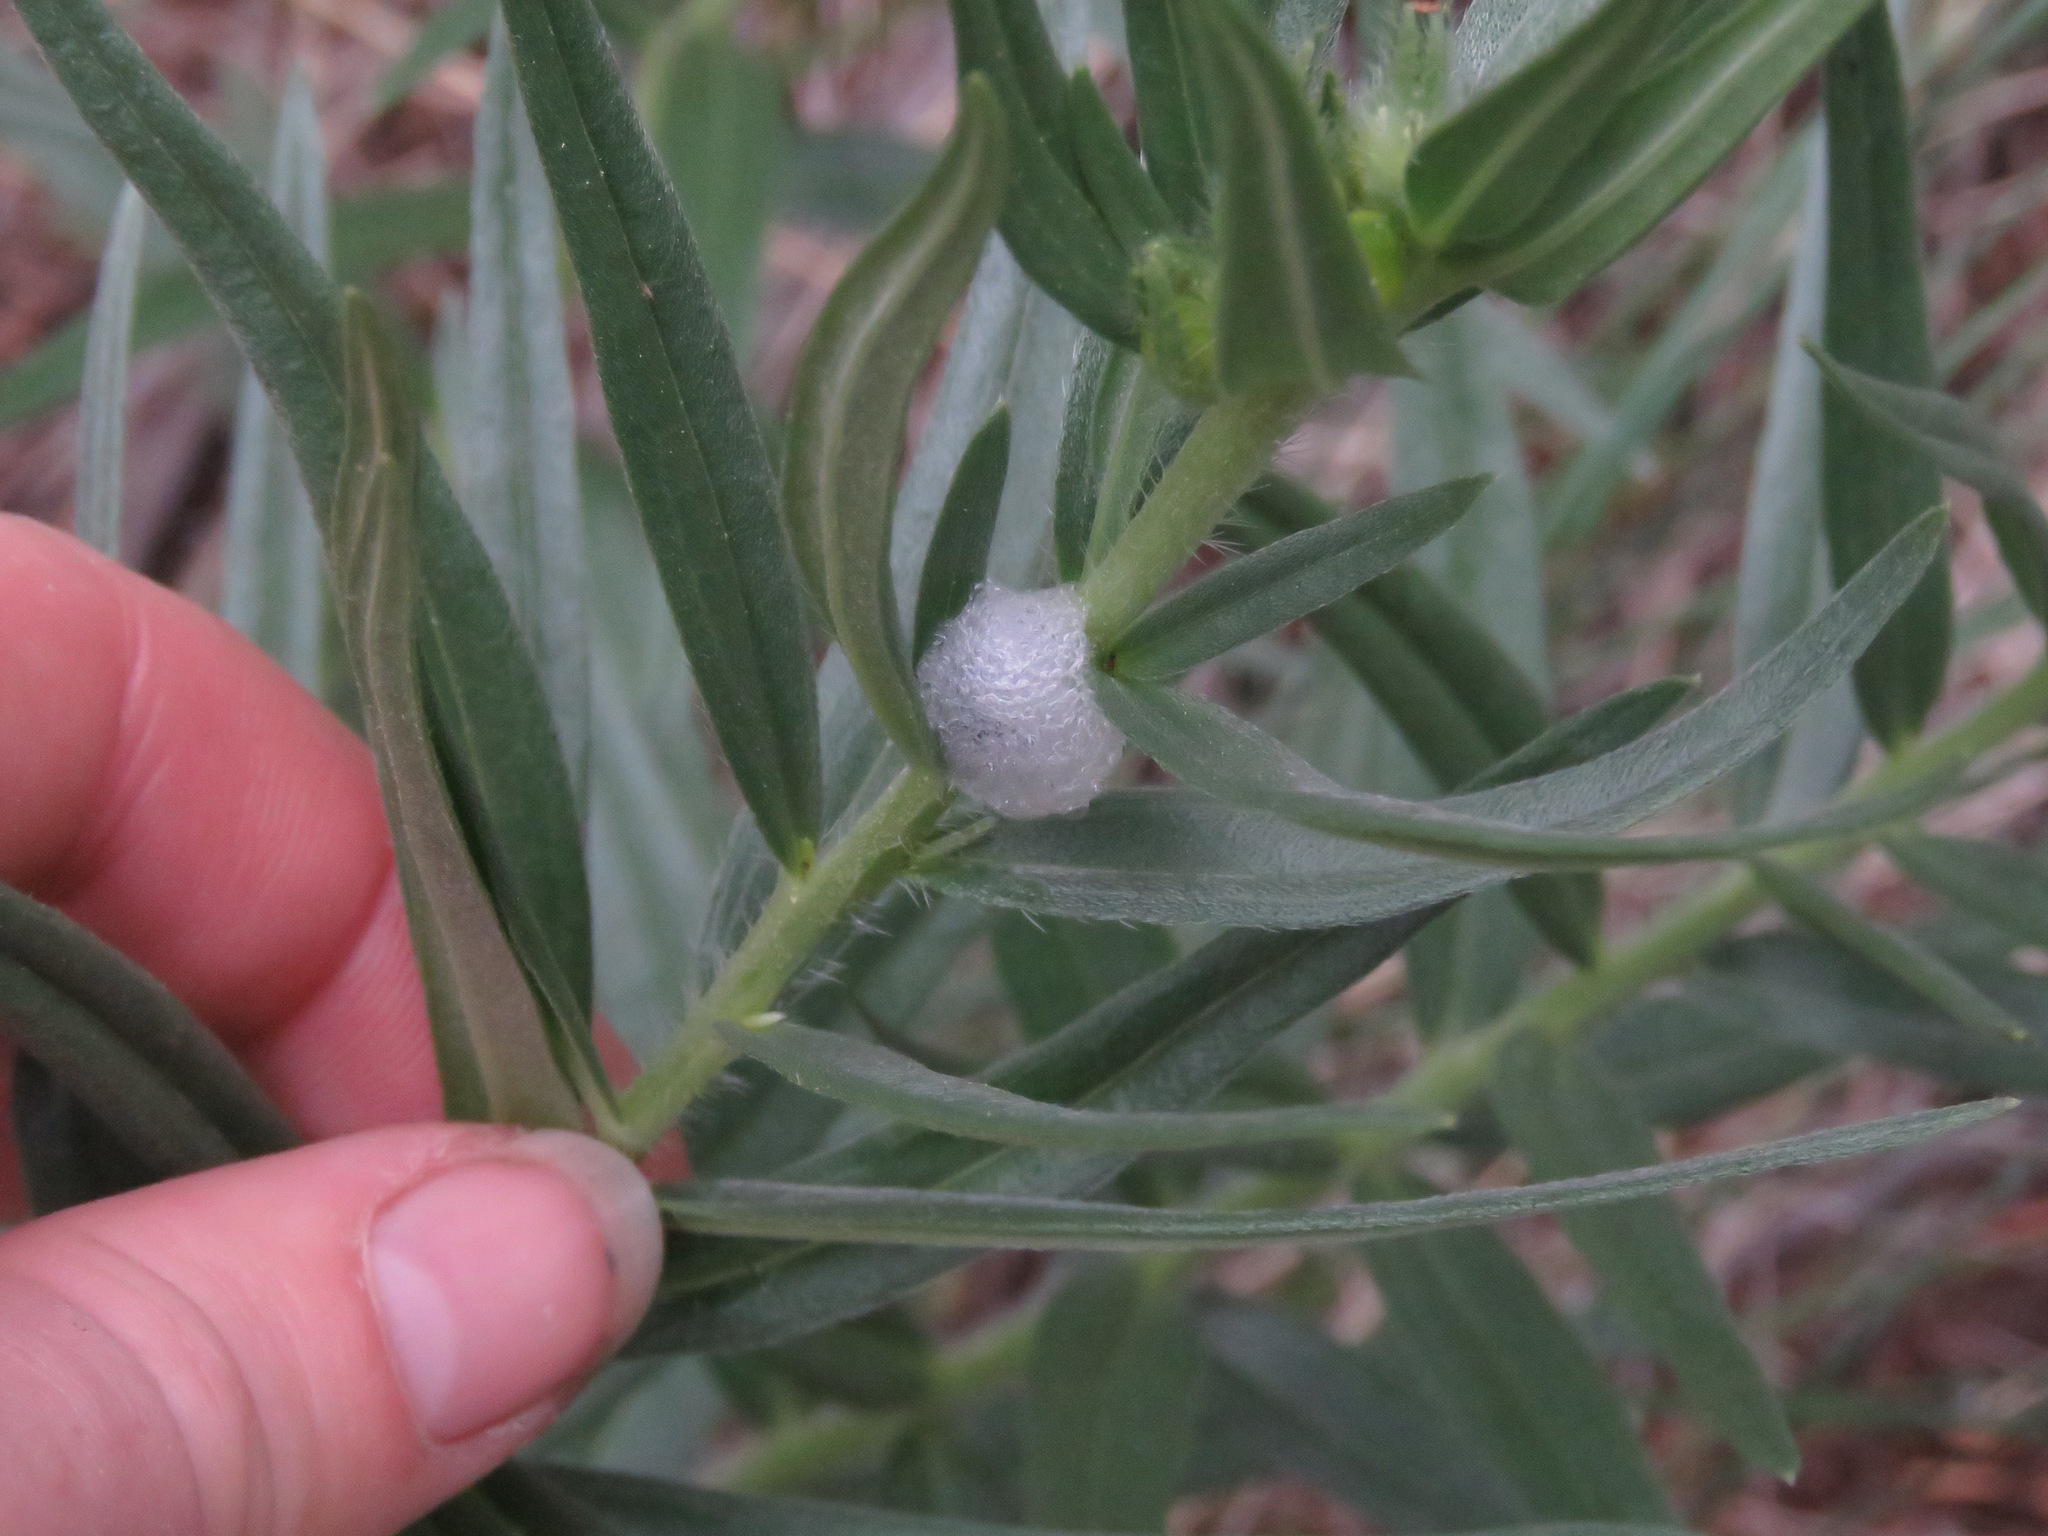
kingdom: Animalia
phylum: Arthropoda
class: Insecta
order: Hemiptera
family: Aphrophoridae
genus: Philaenus
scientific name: Philaenus spumarius
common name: Meadow spittlebug
